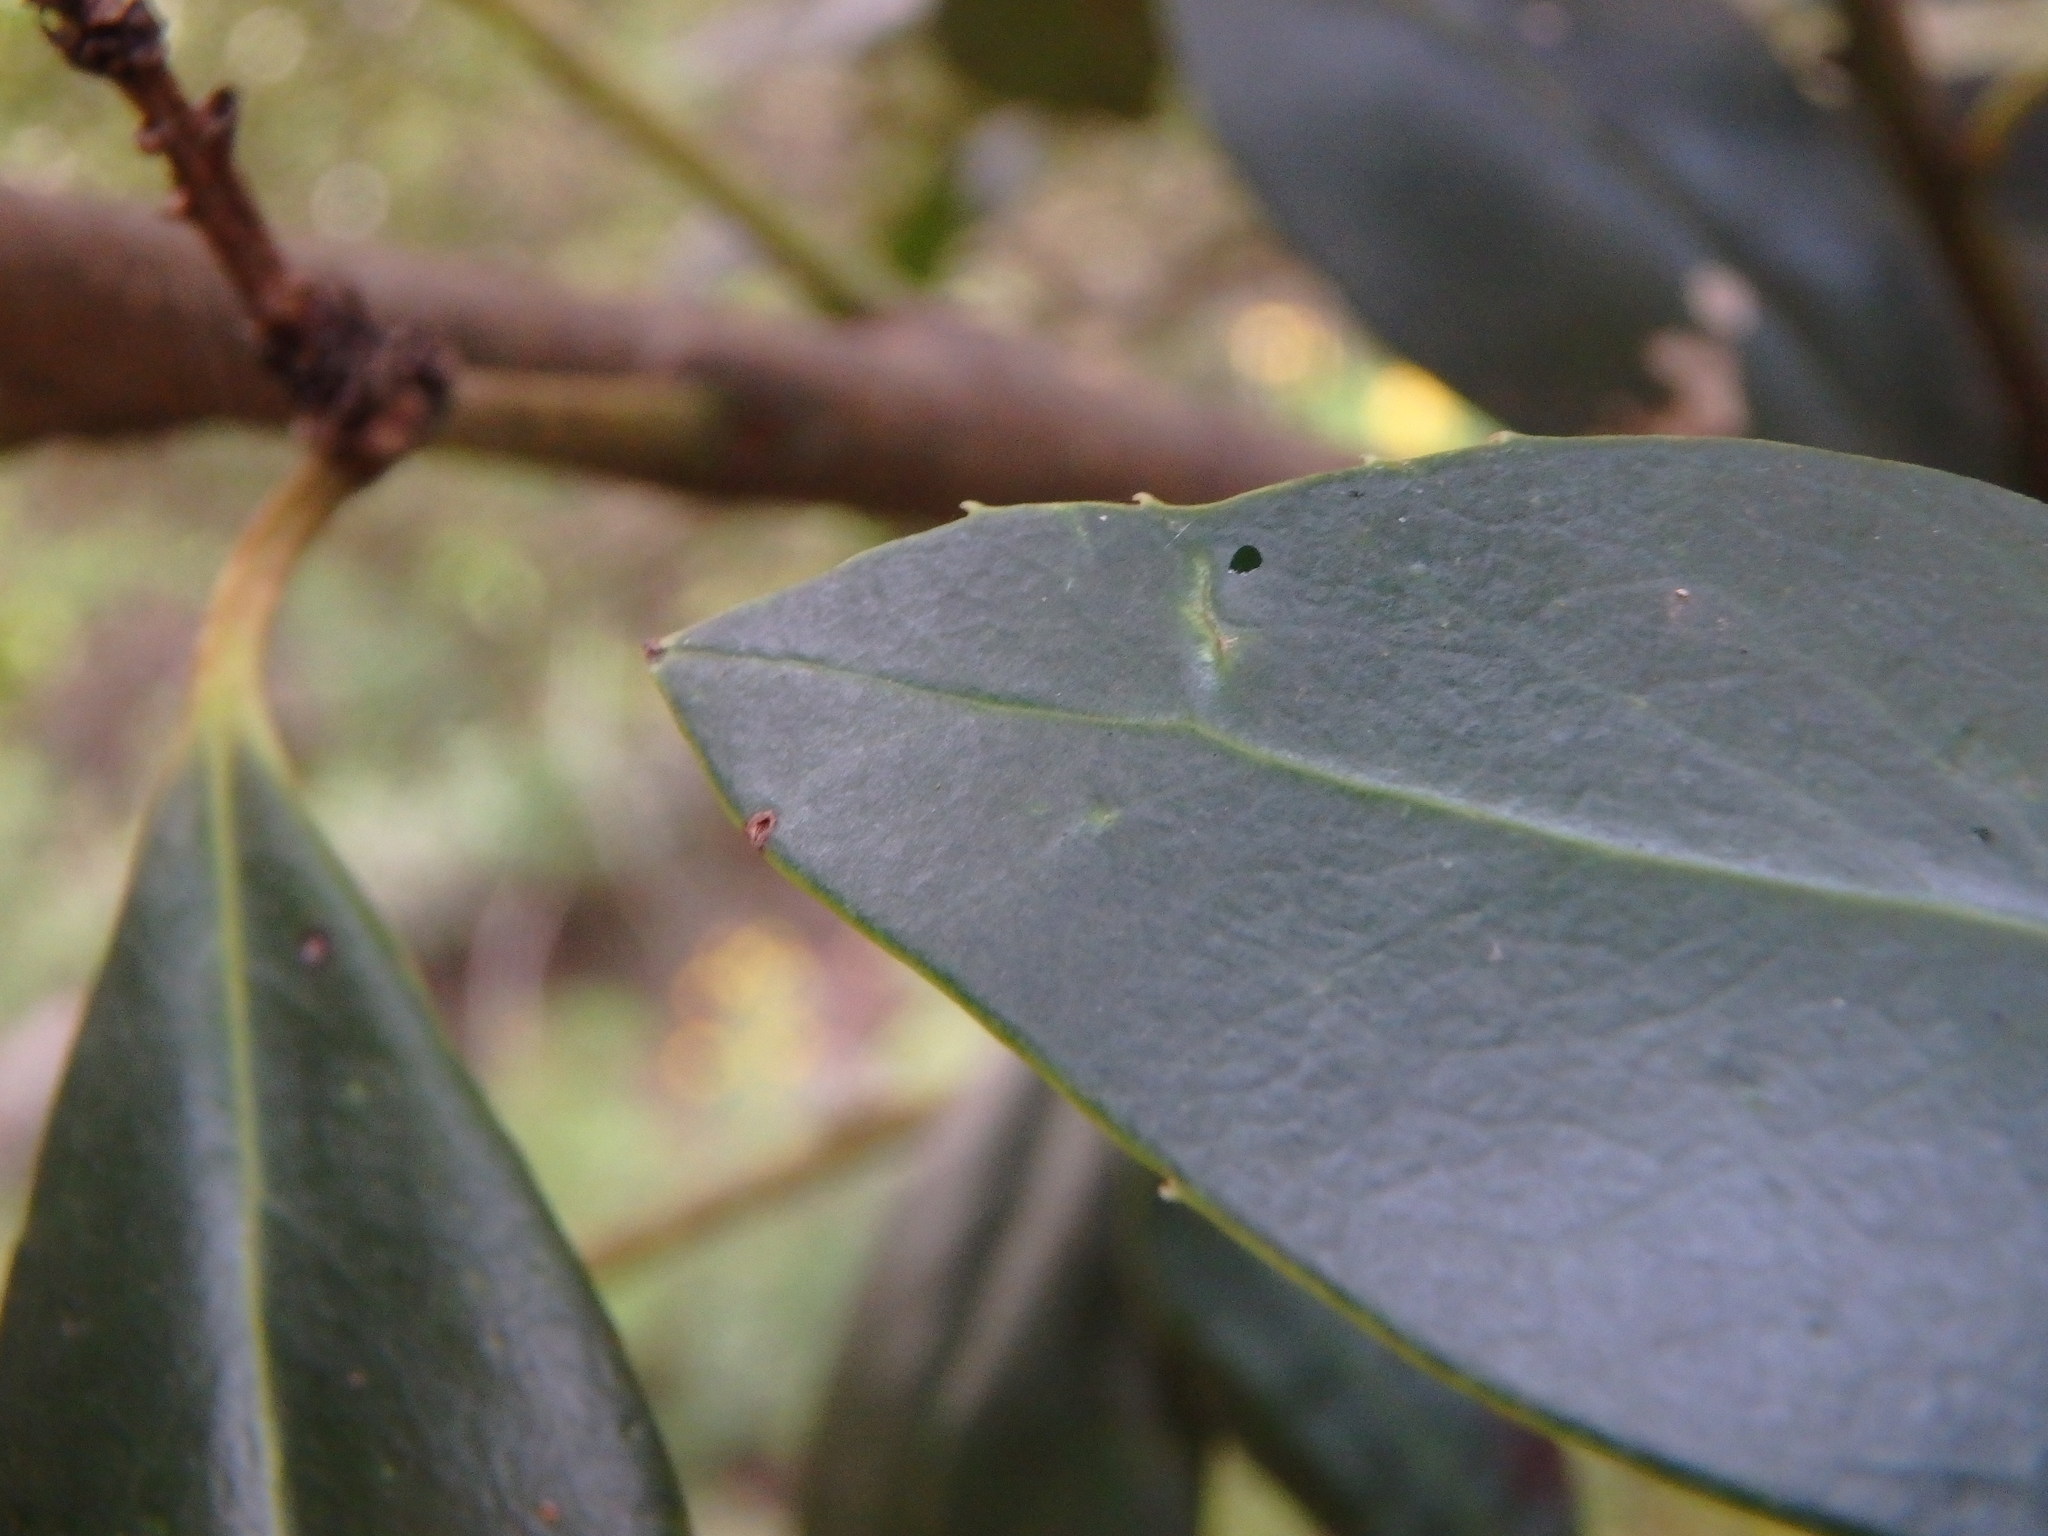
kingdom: Plantae
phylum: Tracheophyta
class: Magnoliopsida
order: Aquifoliales
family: Aquifoliaceae
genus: Ilex
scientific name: Ilex canariensis
